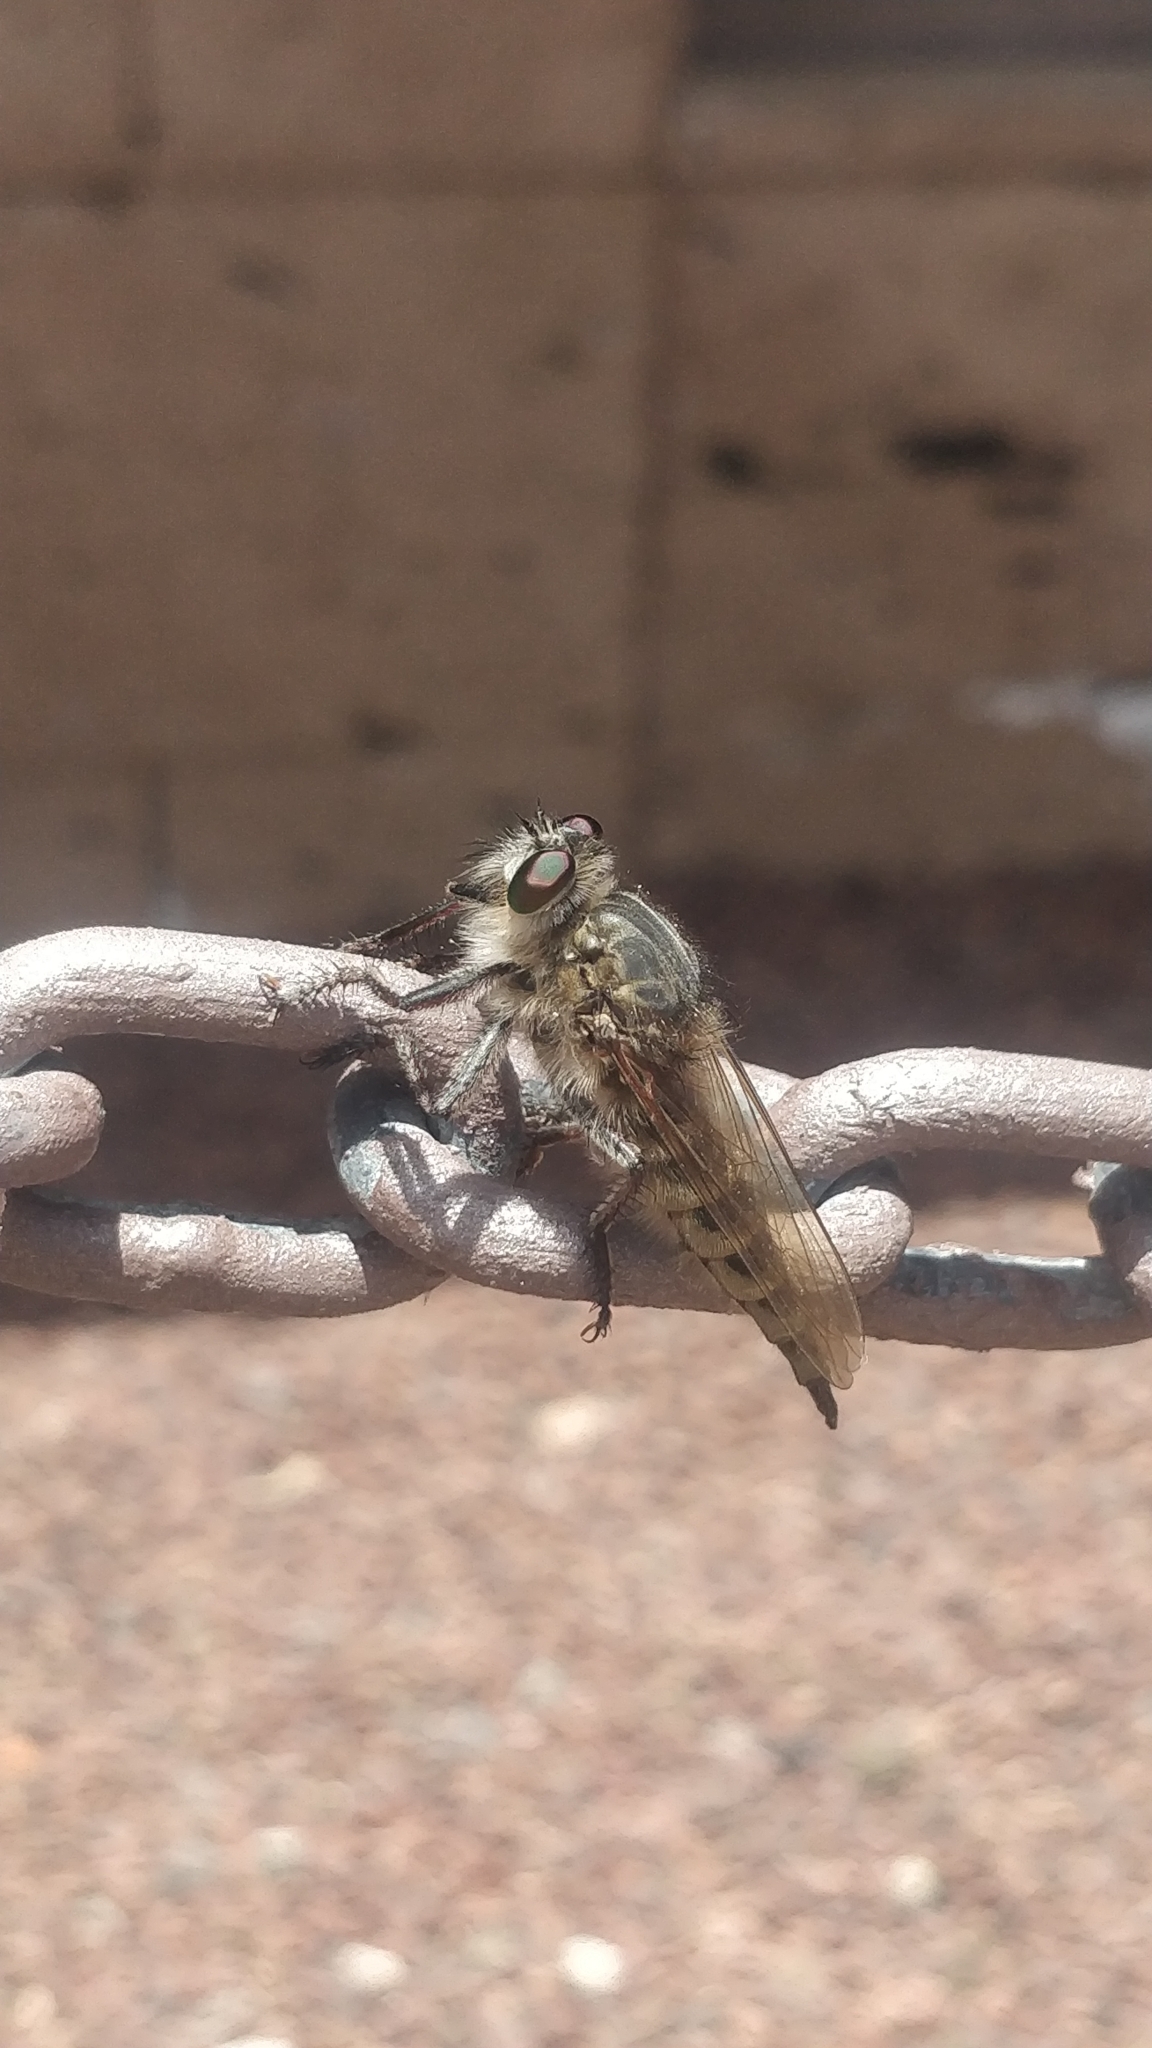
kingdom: Animalia
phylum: Arthropoda
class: Insecta
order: Diptera
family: Asilidae
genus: Promachus
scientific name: Promachus vexator
